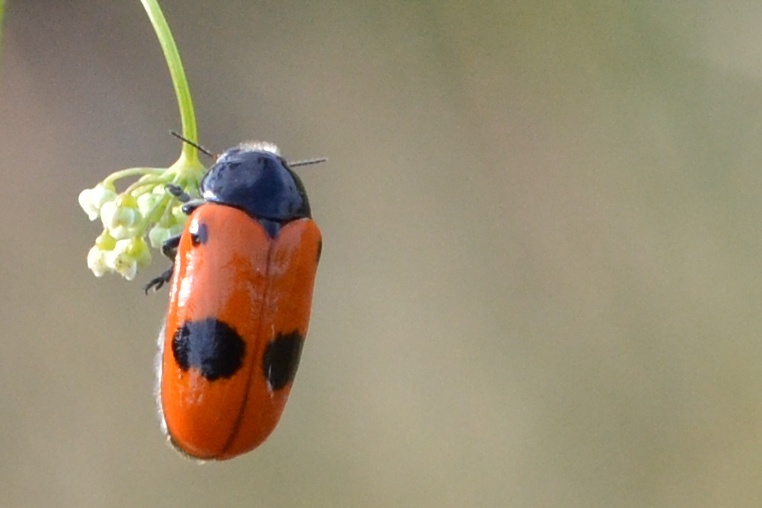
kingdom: Animalia
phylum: Arthropoda
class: Insecta
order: Coleoptera
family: Chrysomelidae
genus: Clytra
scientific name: Clytra laeviuscula
